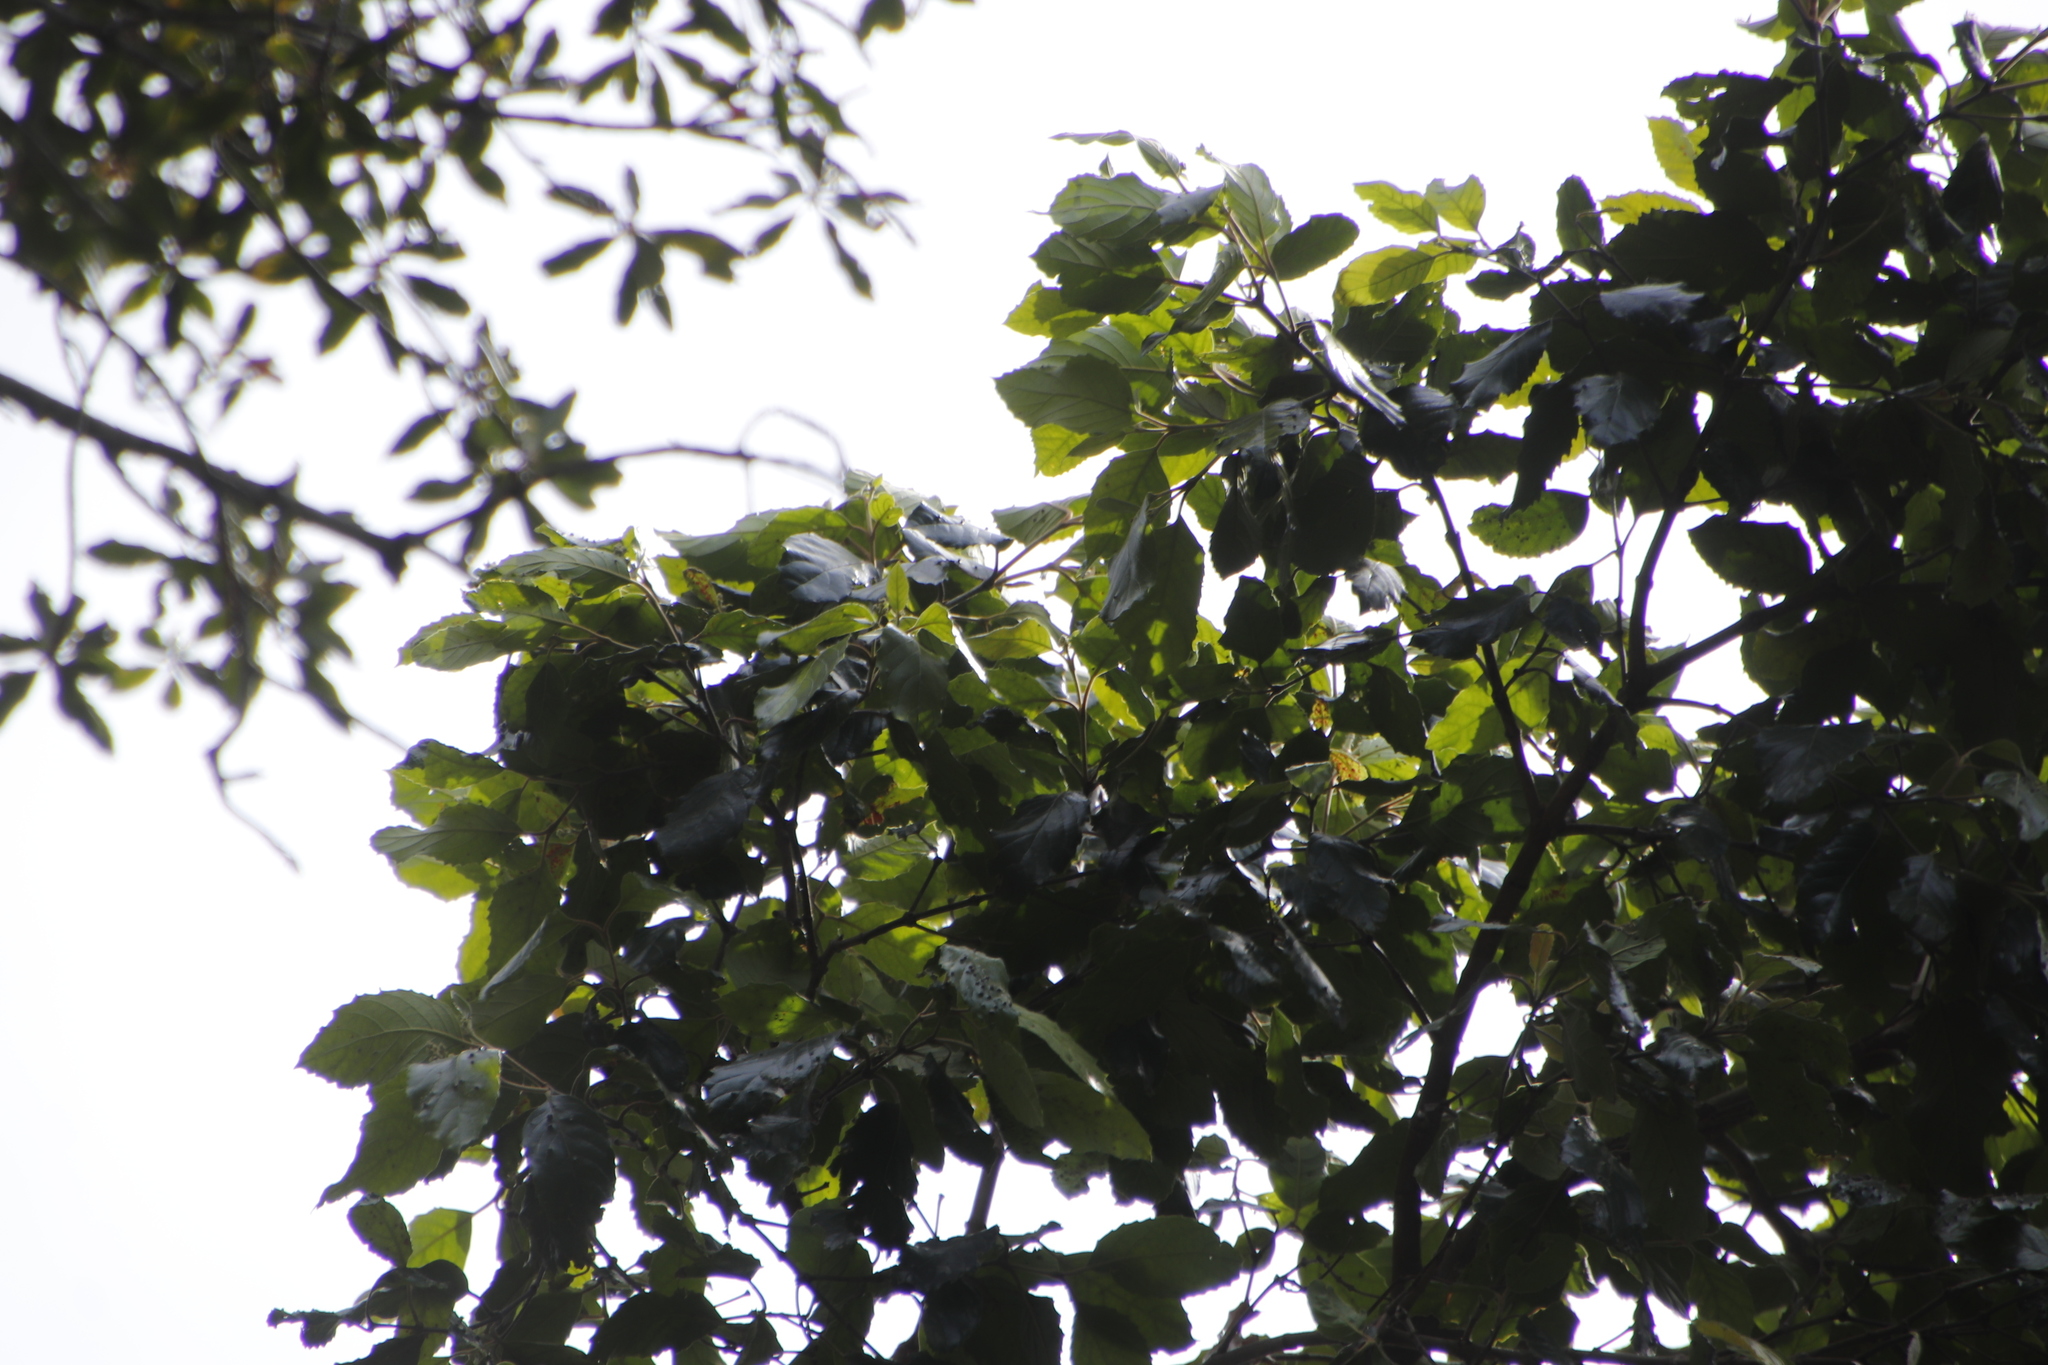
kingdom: Plantae
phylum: Tracheophyta
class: Magnoliopsida
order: Cornales
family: Curtisiaceae
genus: Curtisia
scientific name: Curtisia dentata
